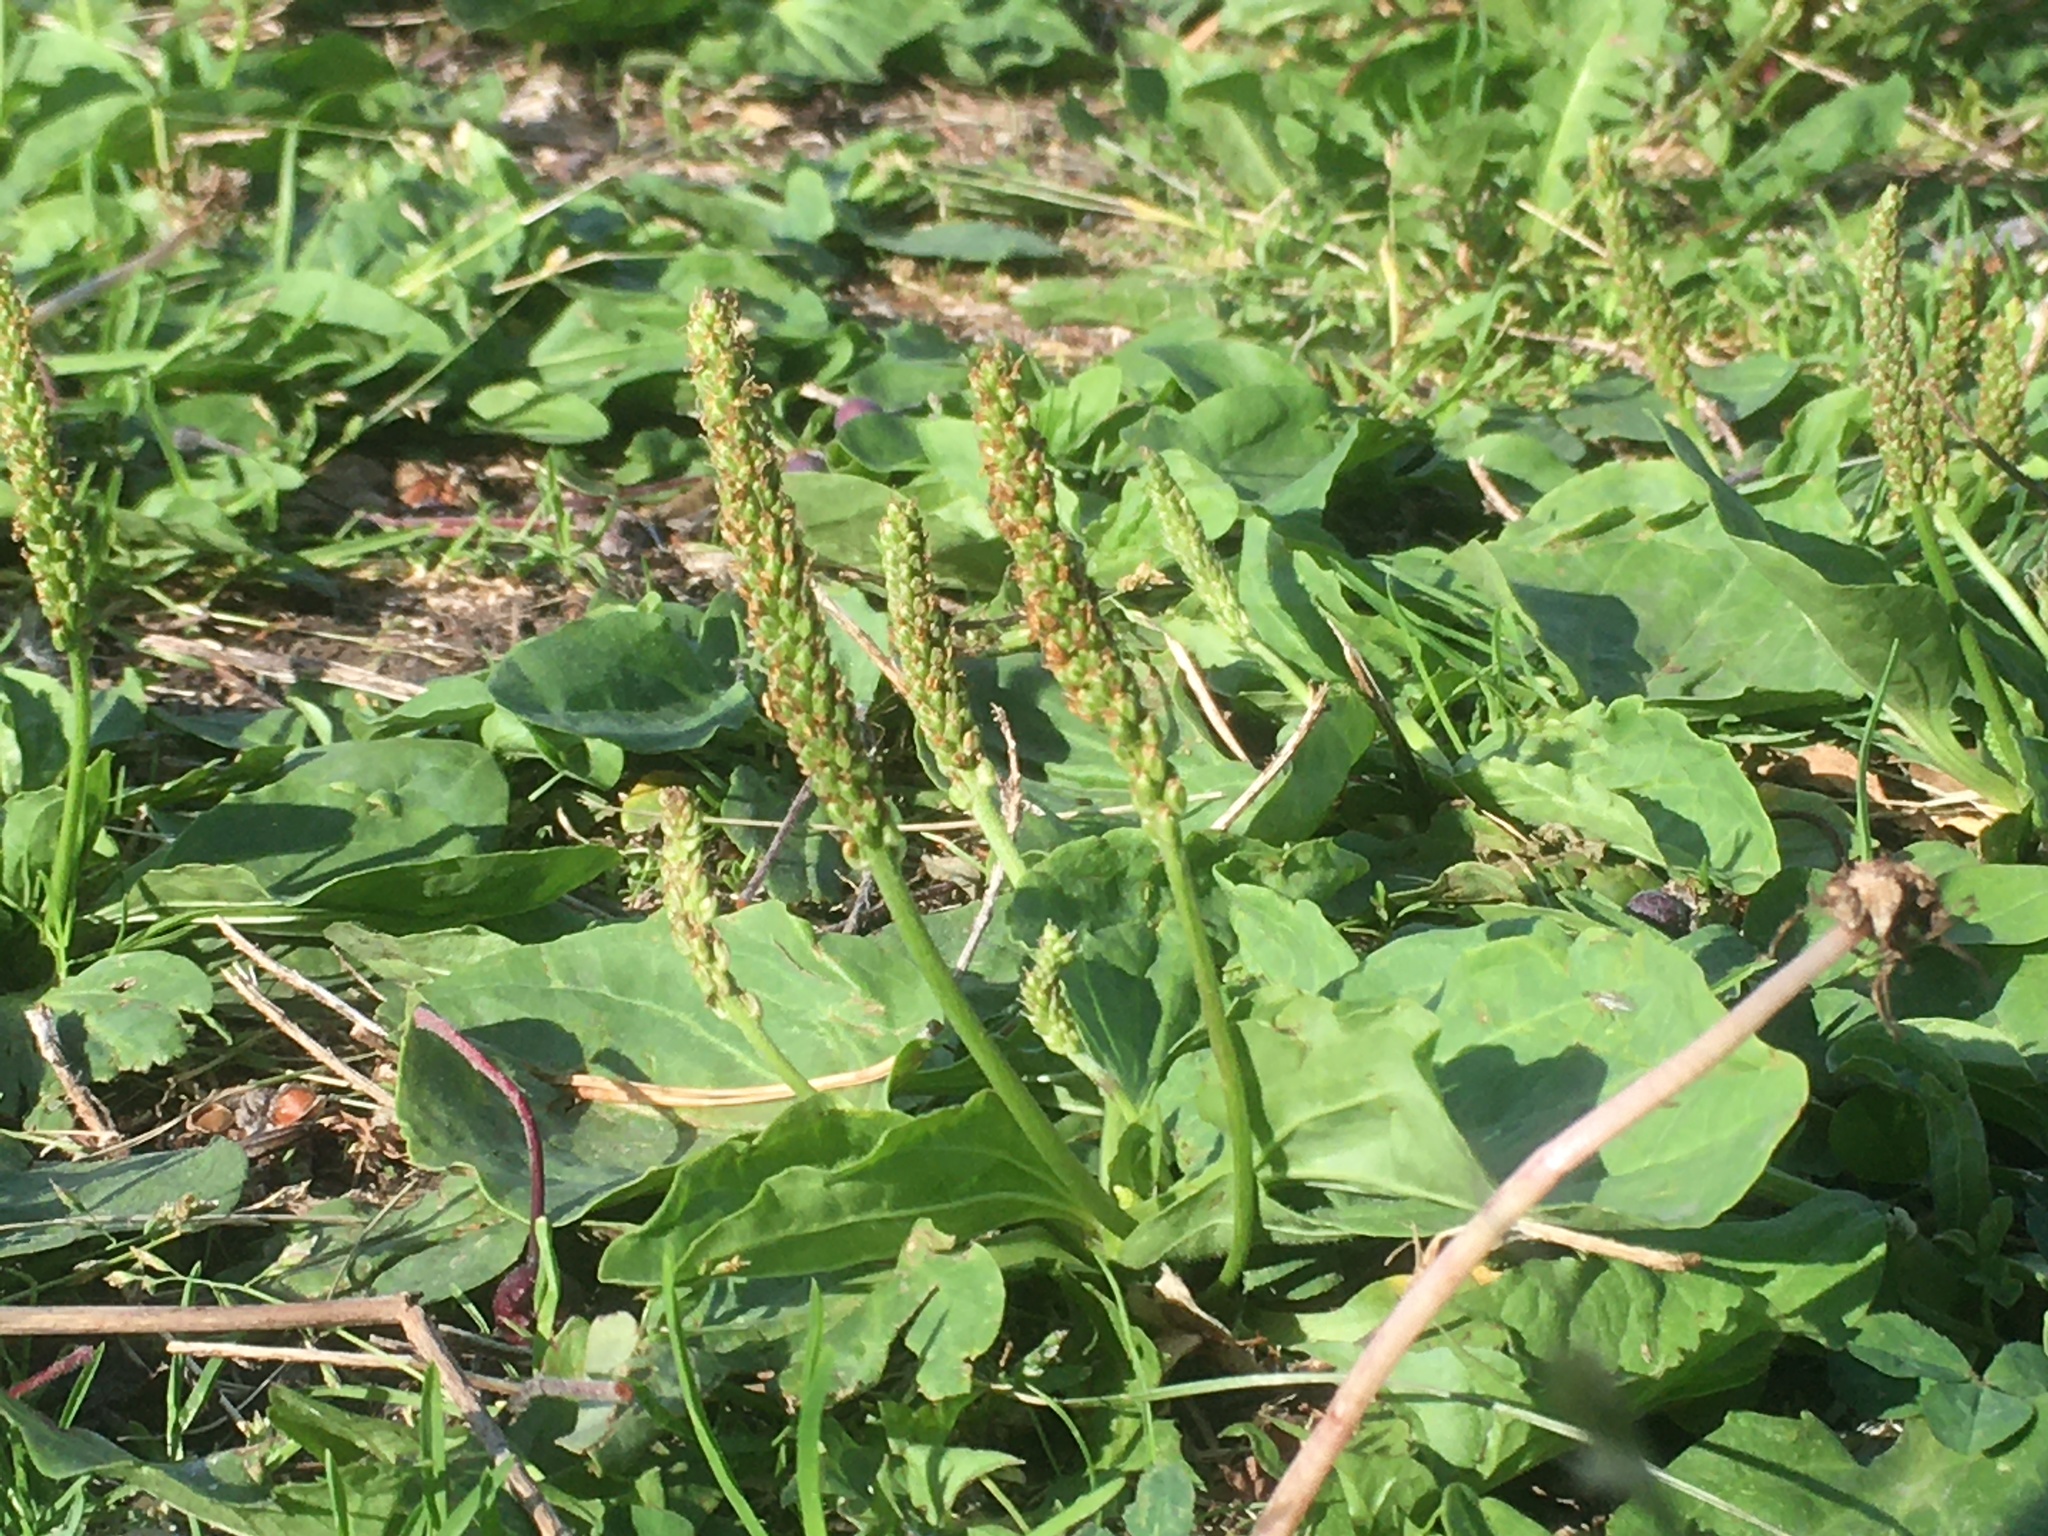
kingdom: Plantae
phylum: Tracheophyta
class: Magnoliopsida
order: Lamiales
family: Plantaginaceae
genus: Plantago
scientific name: Plantago major
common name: Common plantain
